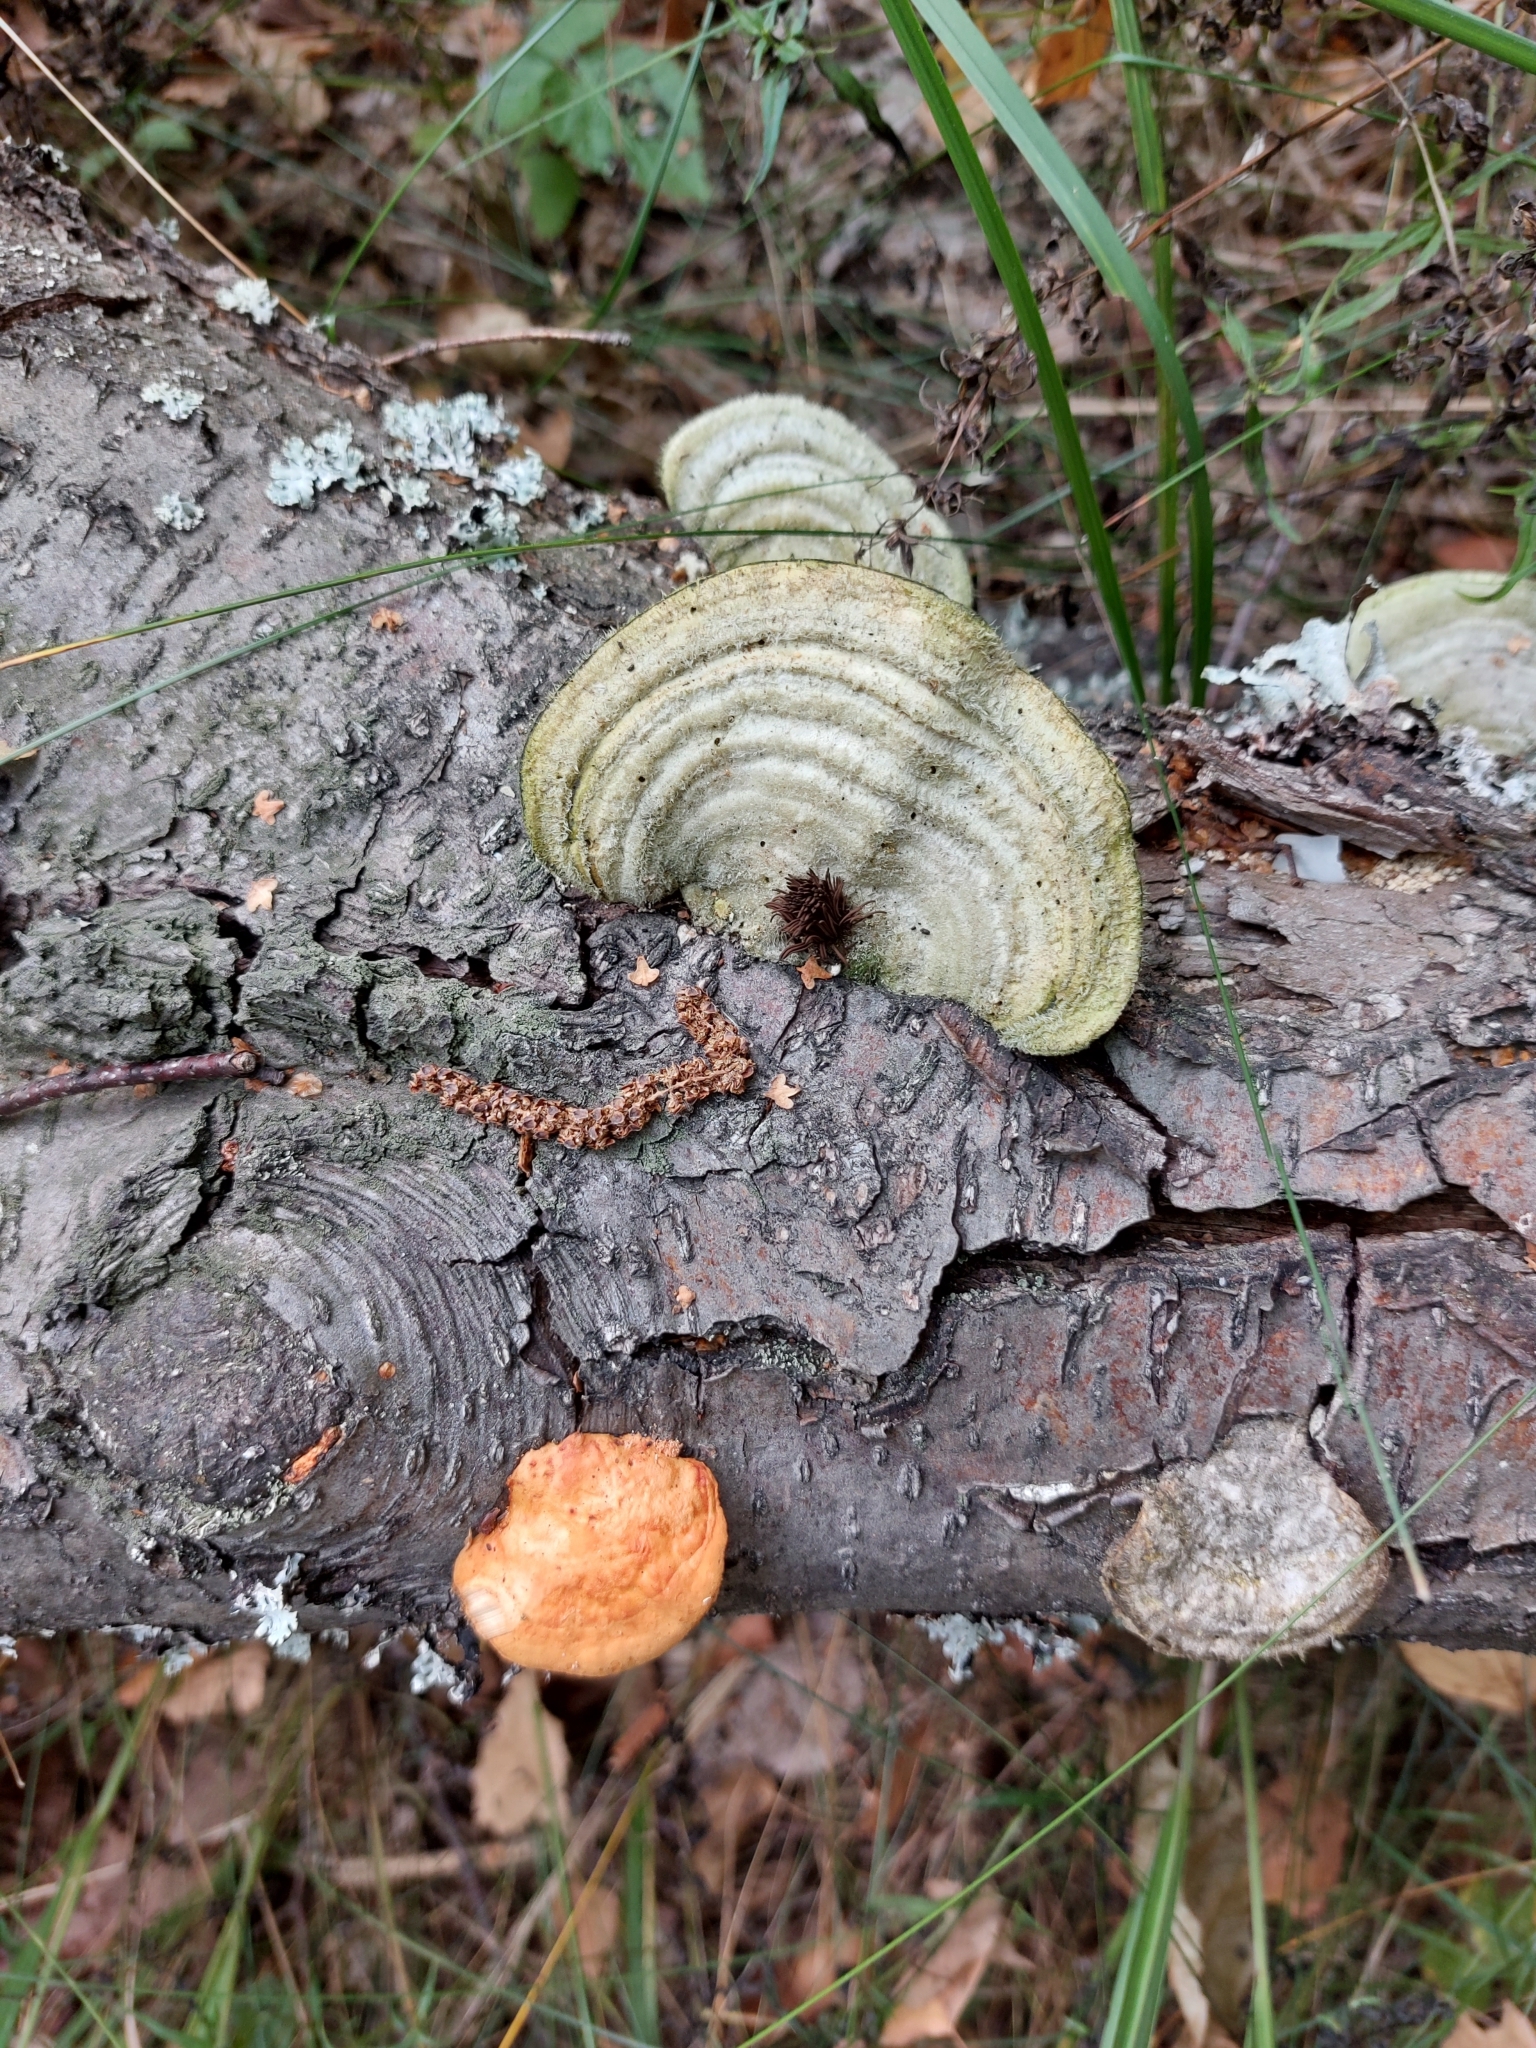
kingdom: Fungi
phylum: Basidiomycota
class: Agaricomycetes
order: Polyporales
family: Polyporaceae
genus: Trametes
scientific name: Trametes cinnabarina
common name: Northern cinnabar polypore
